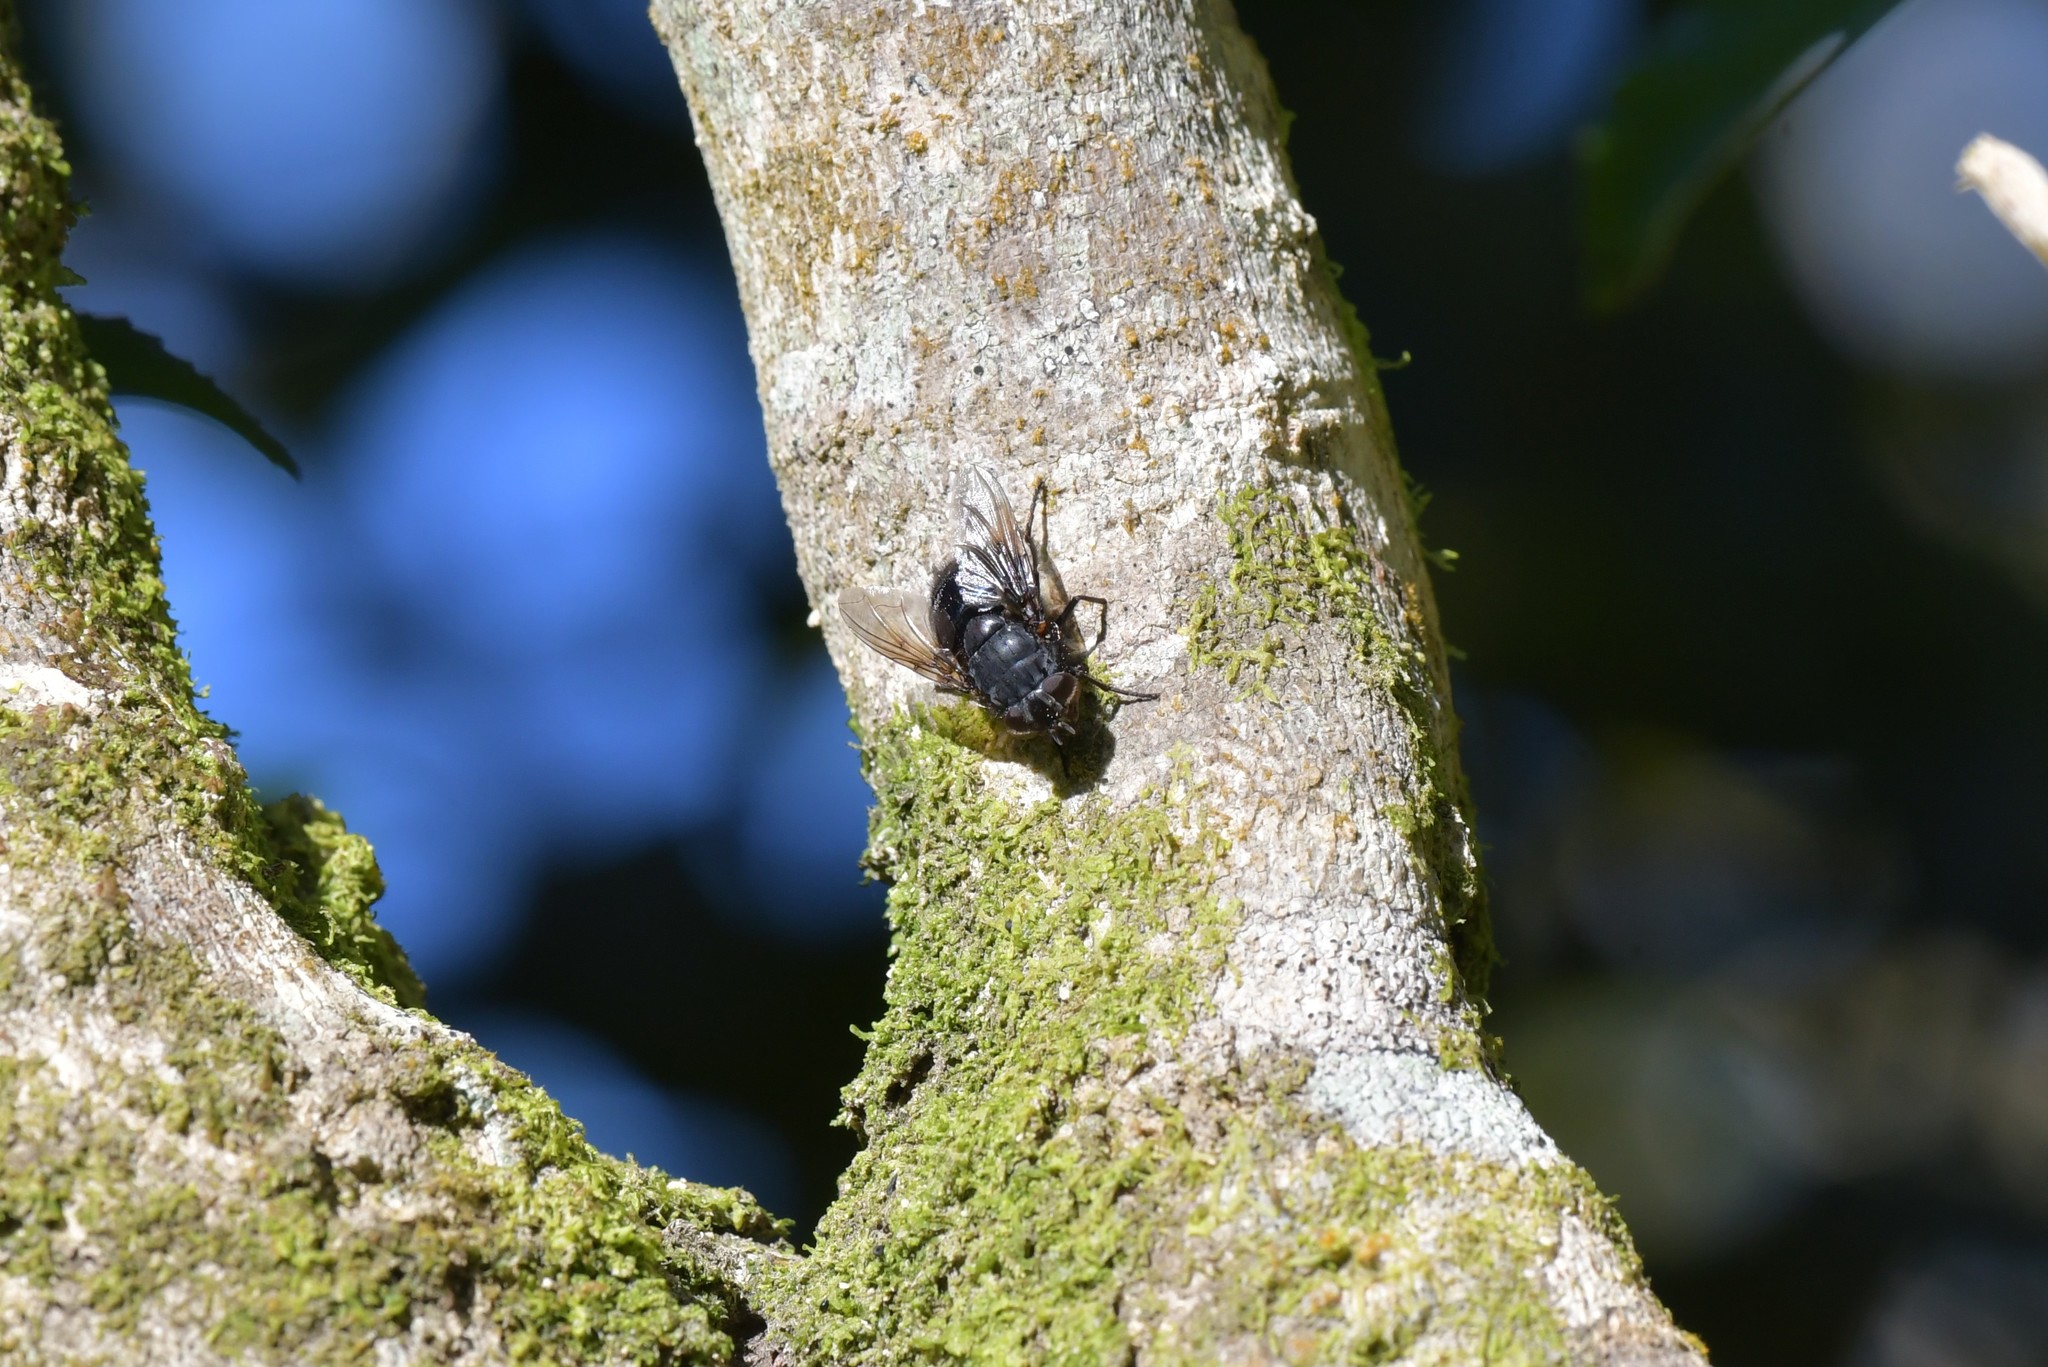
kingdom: Animalia
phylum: Arthropoda
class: Insecta
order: Diptera
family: Calliphoridae
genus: Calliphora
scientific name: Calliphora quadrimaculata
